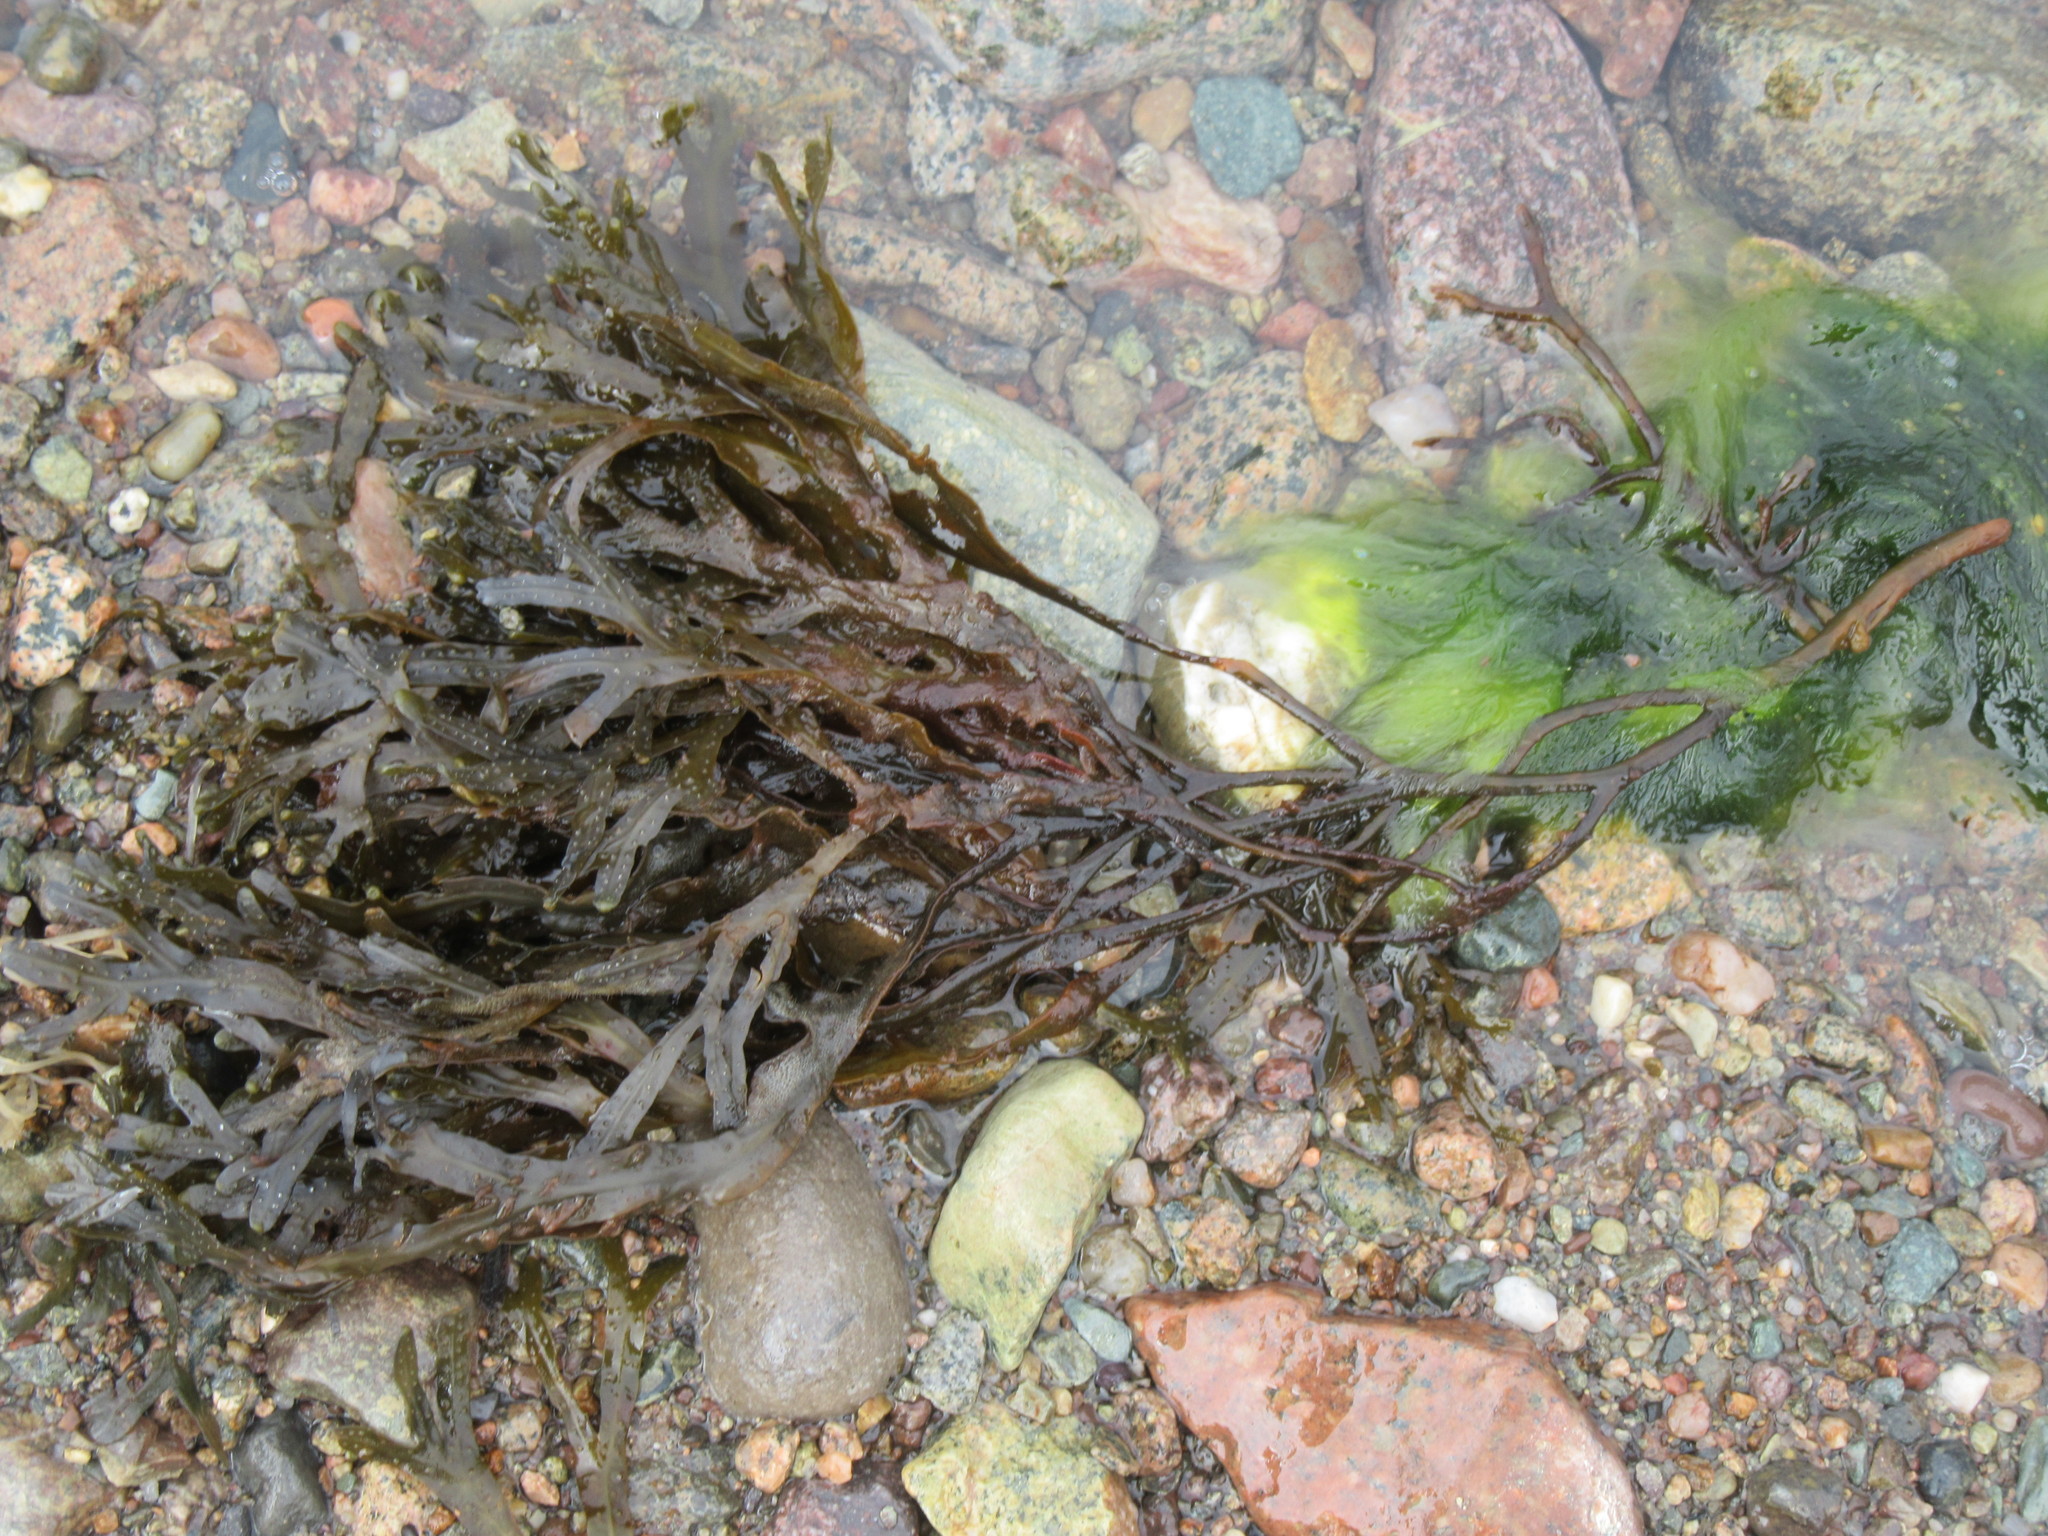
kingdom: Chromista
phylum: Ochrophyta
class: Phaeophyceae
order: Fucales
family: Fucaceae
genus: Fucus
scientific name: Fucus distichus
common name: Rockweed
